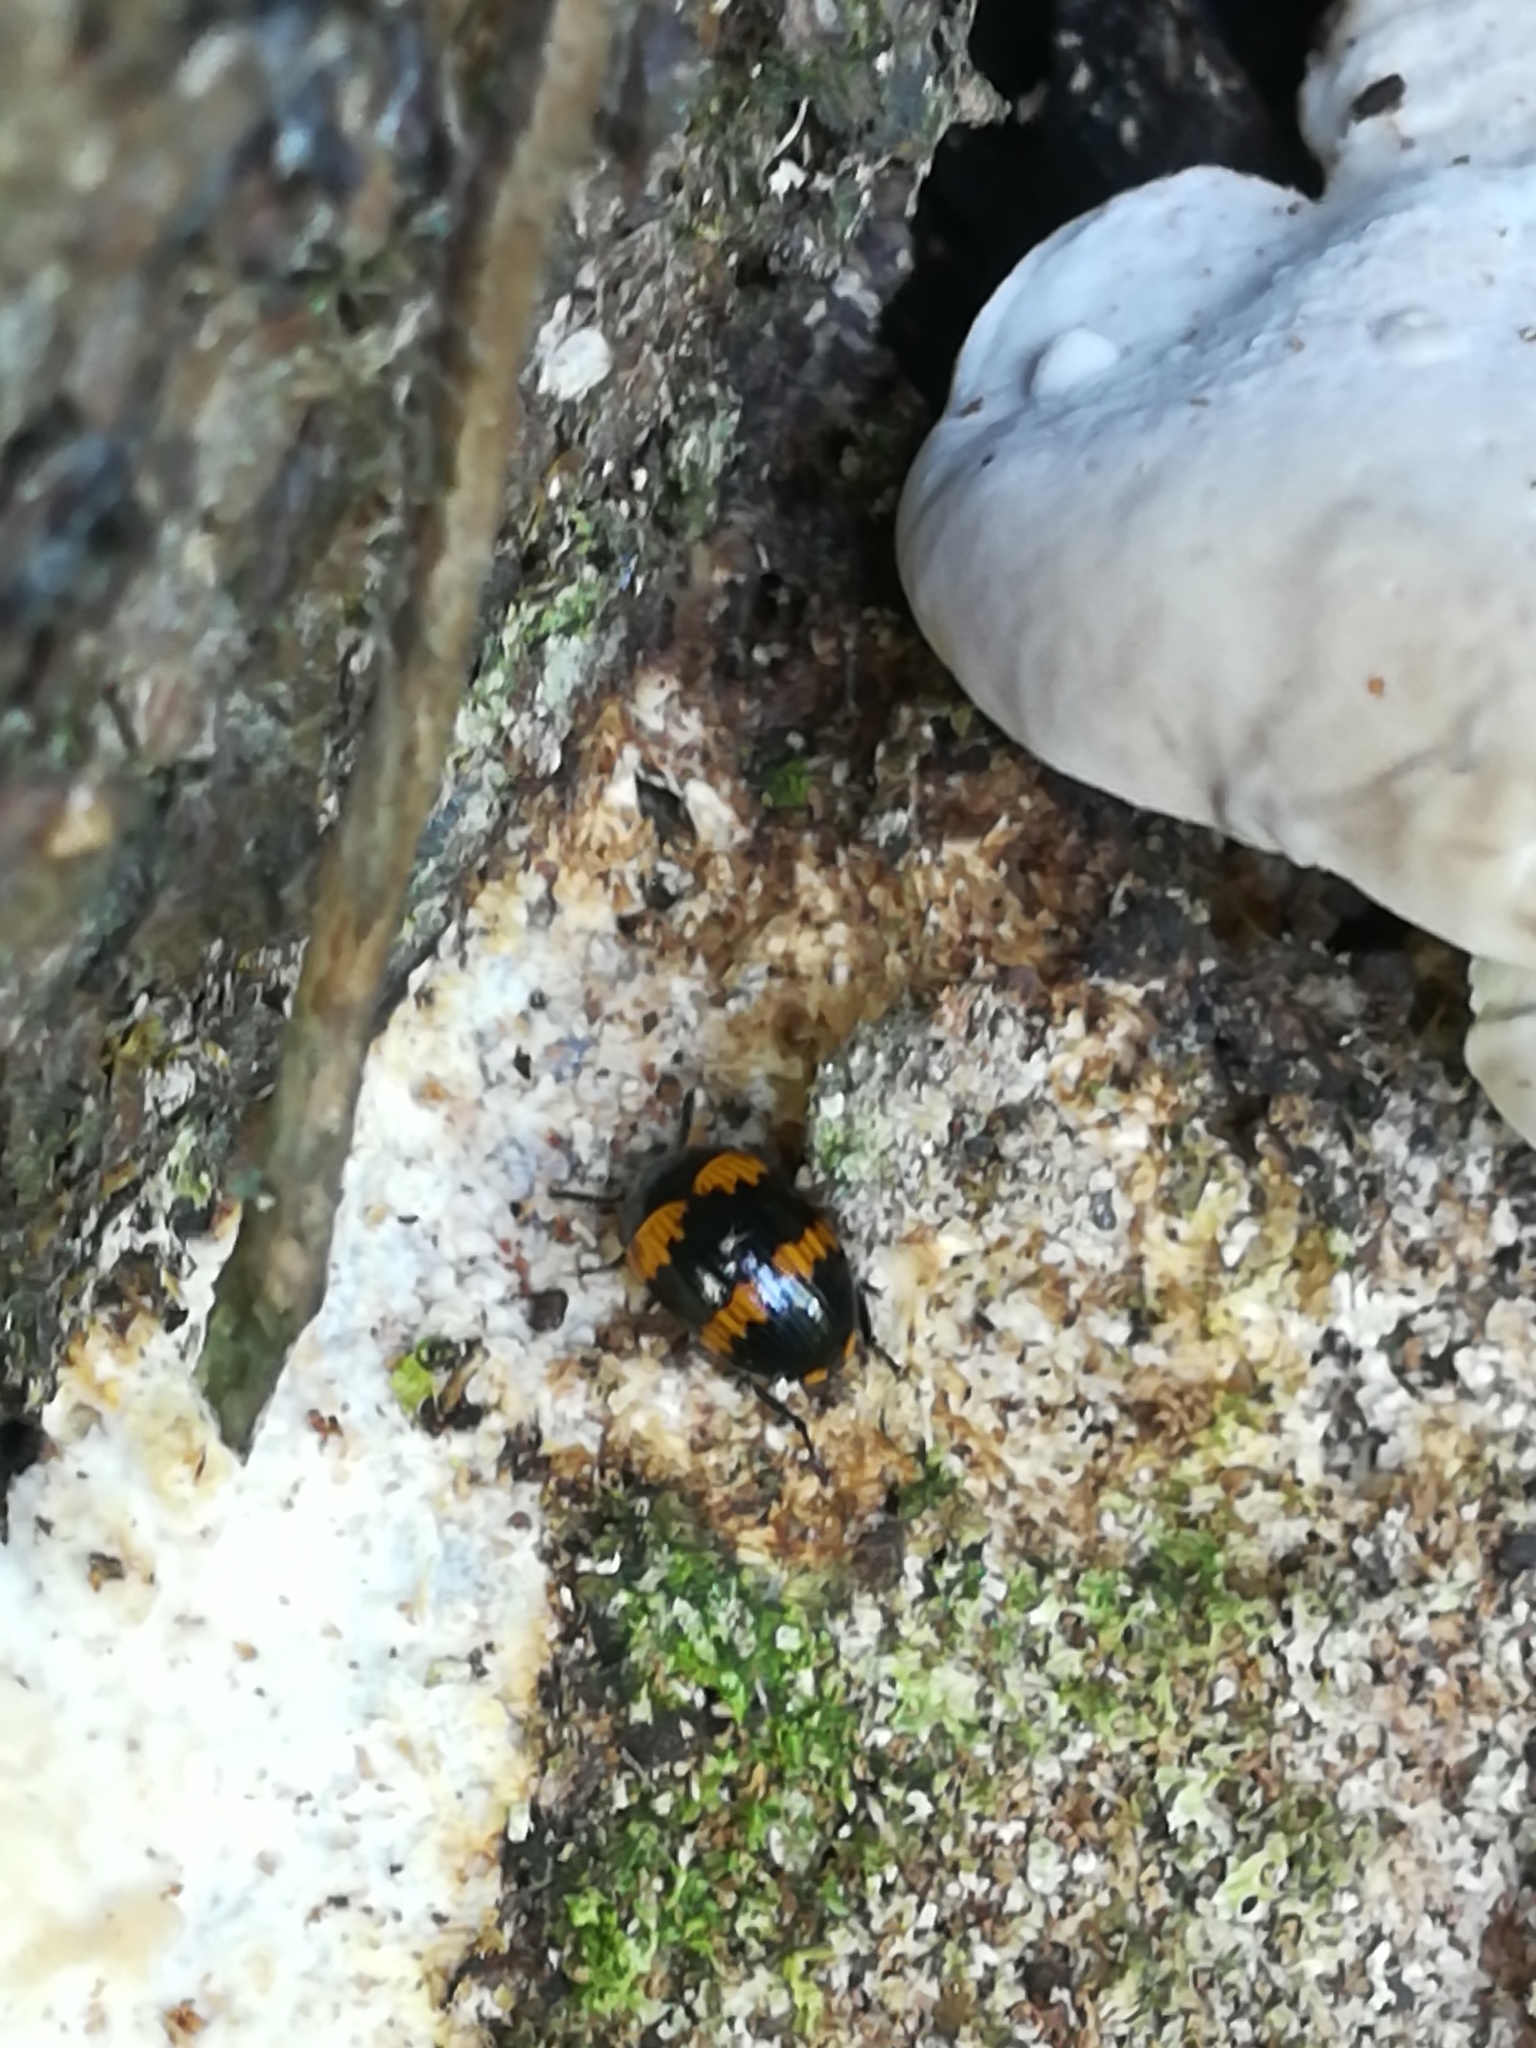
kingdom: Animalia
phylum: Arthropoda
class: Insecta
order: Coleoptera
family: Tenebrionidae
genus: Diaperis
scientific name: Diaperis boleti
